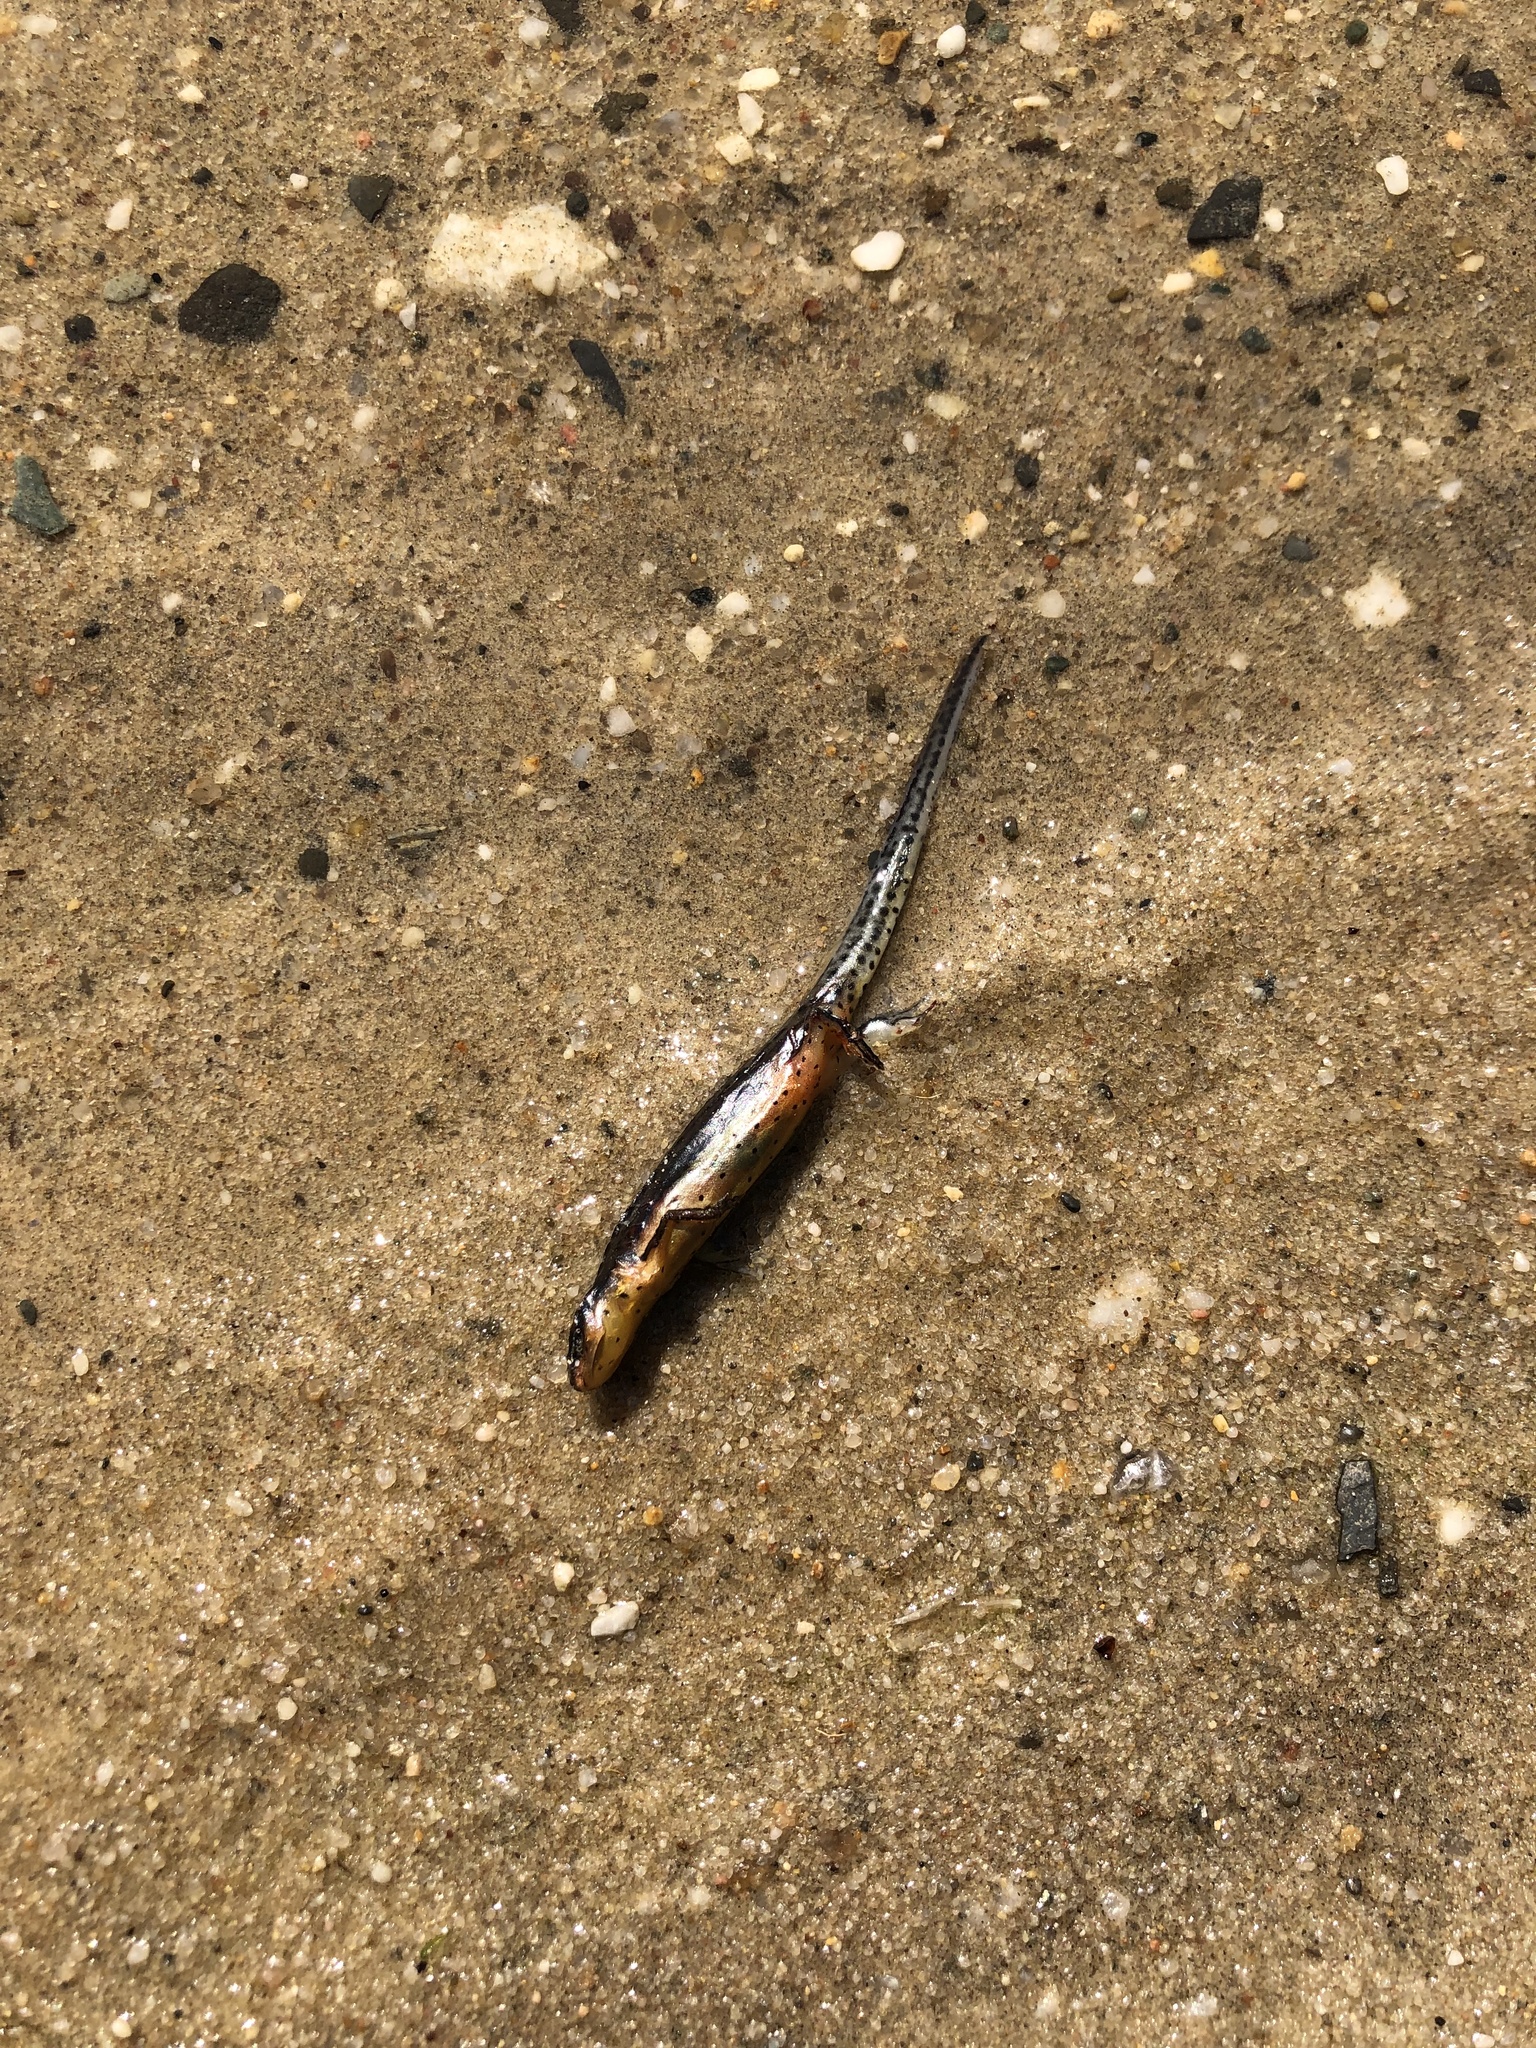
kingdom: Animalia
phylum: Chordata
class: Amphibia
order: Caudata
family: Salamandridae
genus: Notophthalmus
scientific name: Notophthalmus viridescens
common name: Eastern newt
